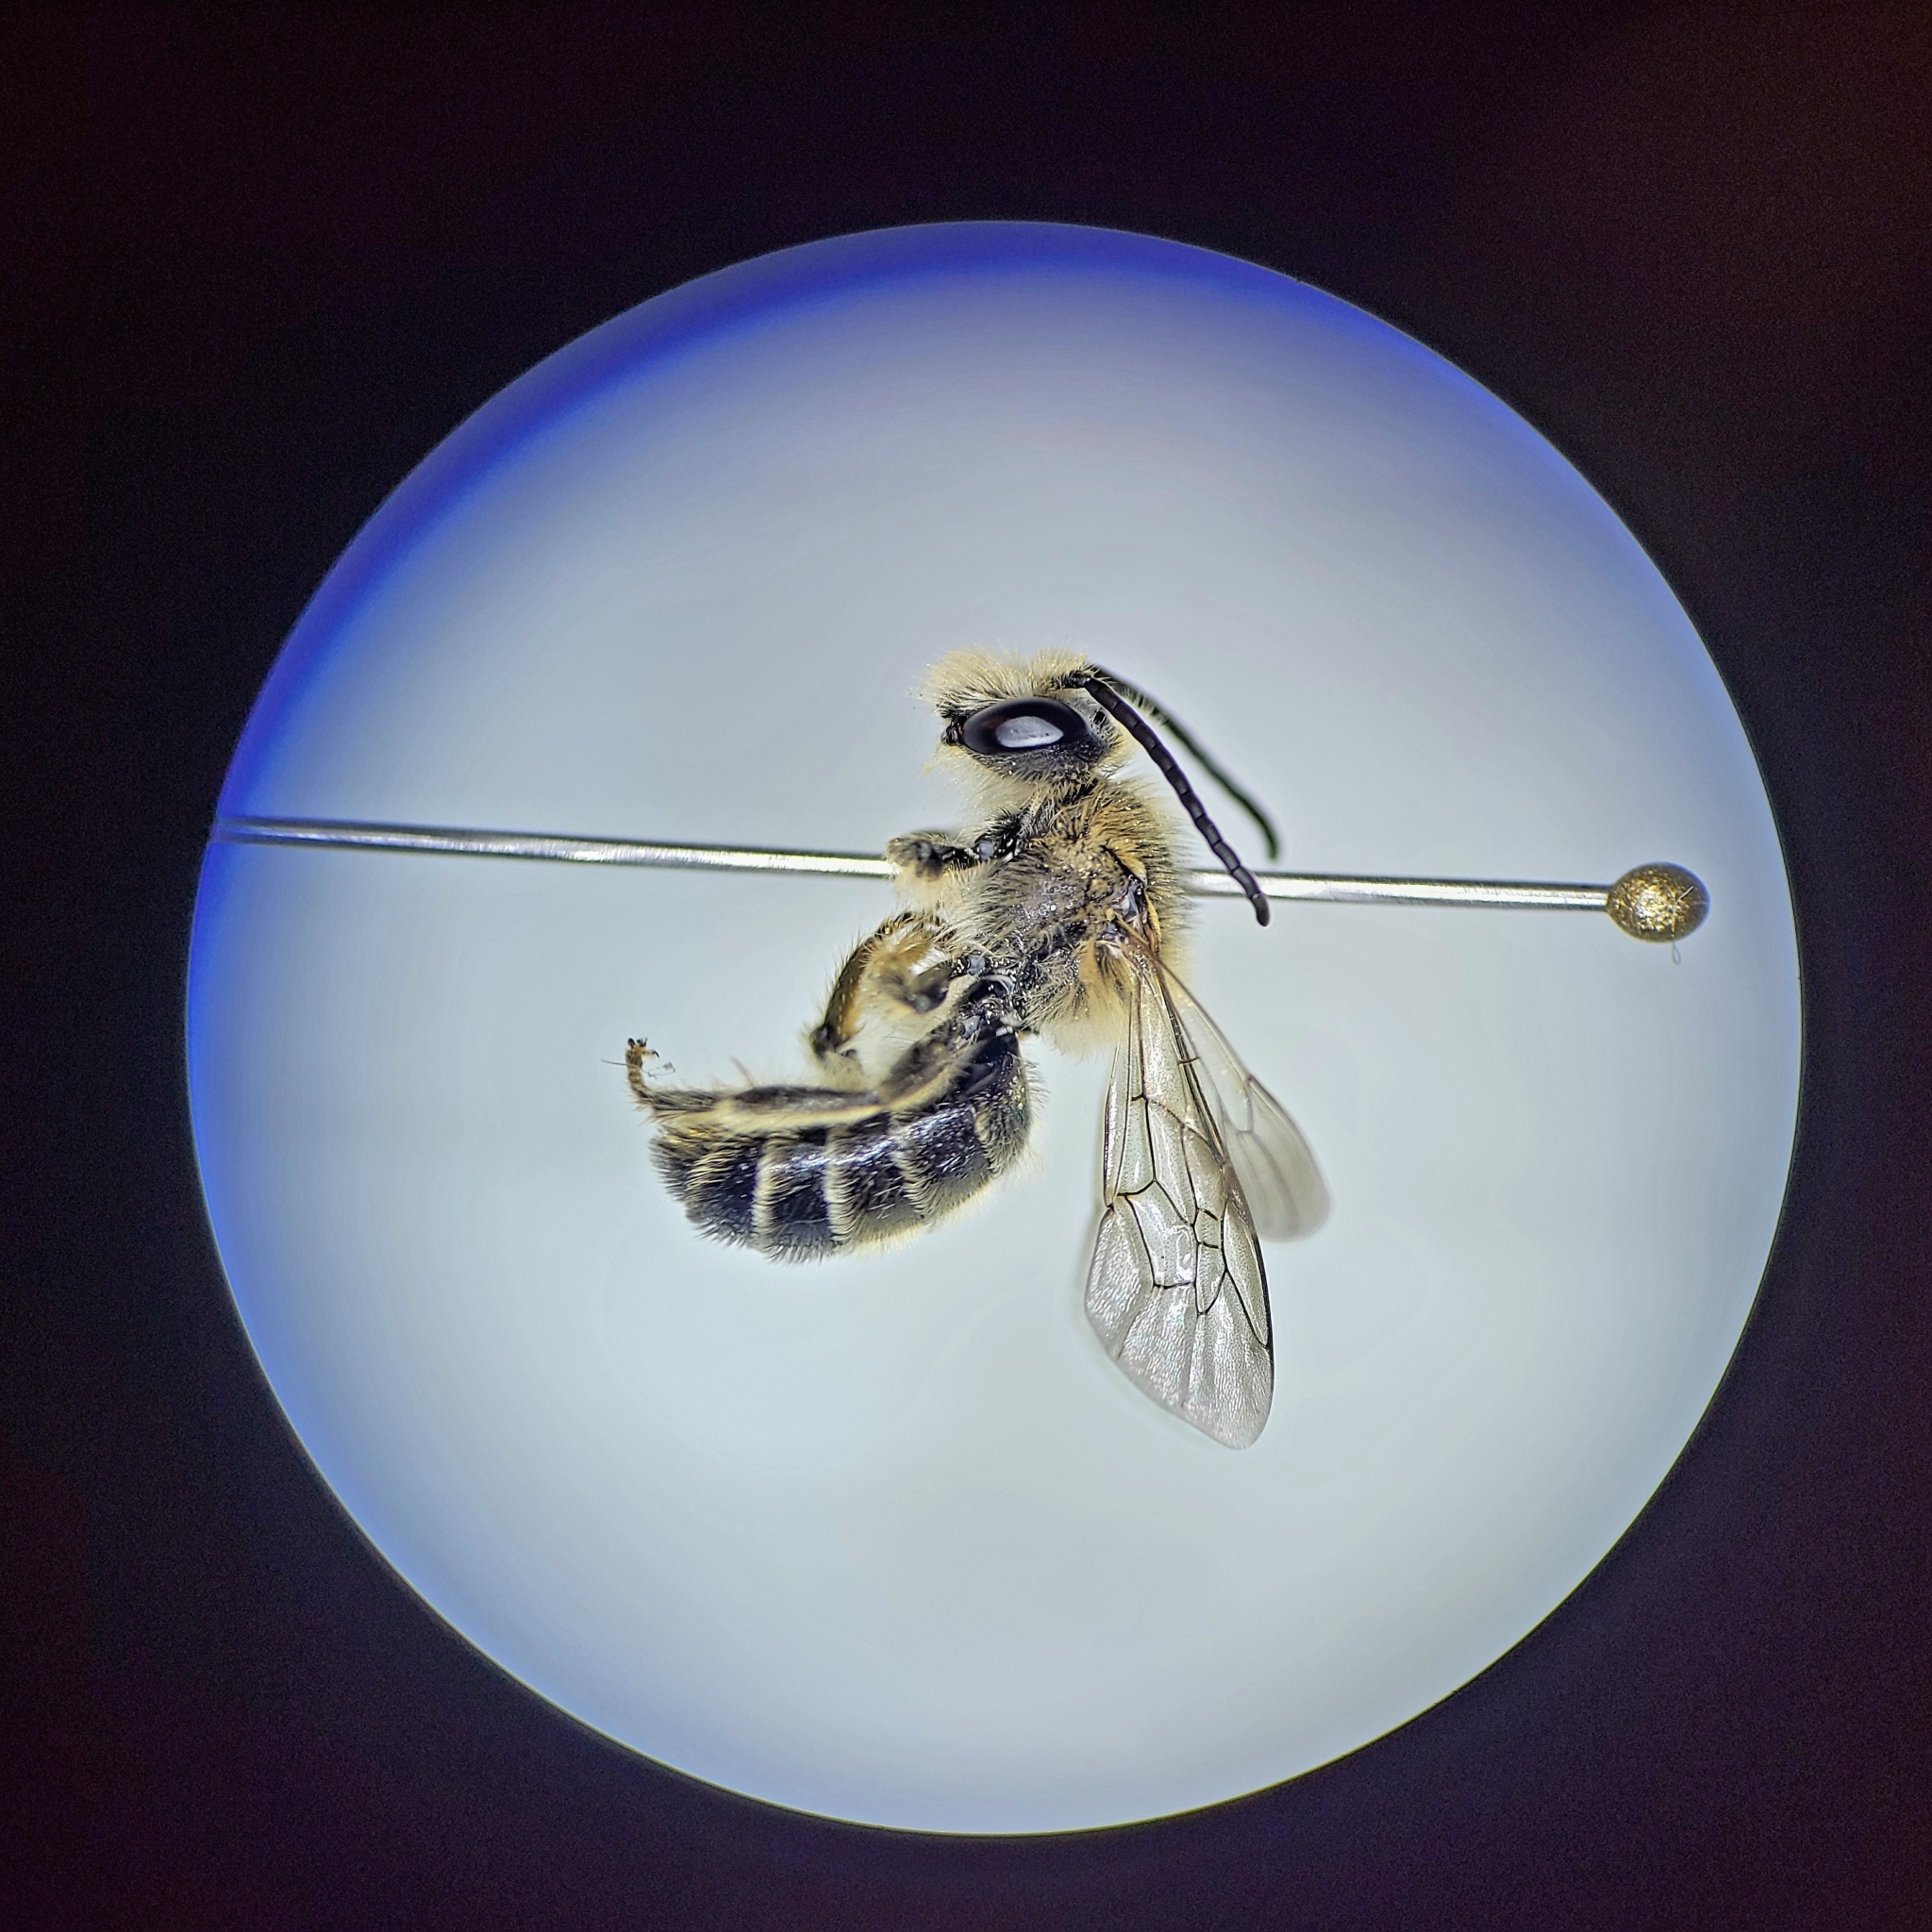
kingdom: Animalia
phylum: Arthropoda
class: Insecta
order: Hymenoptera
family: Melittidae
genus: Melitta
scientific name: Melitta melittoides
